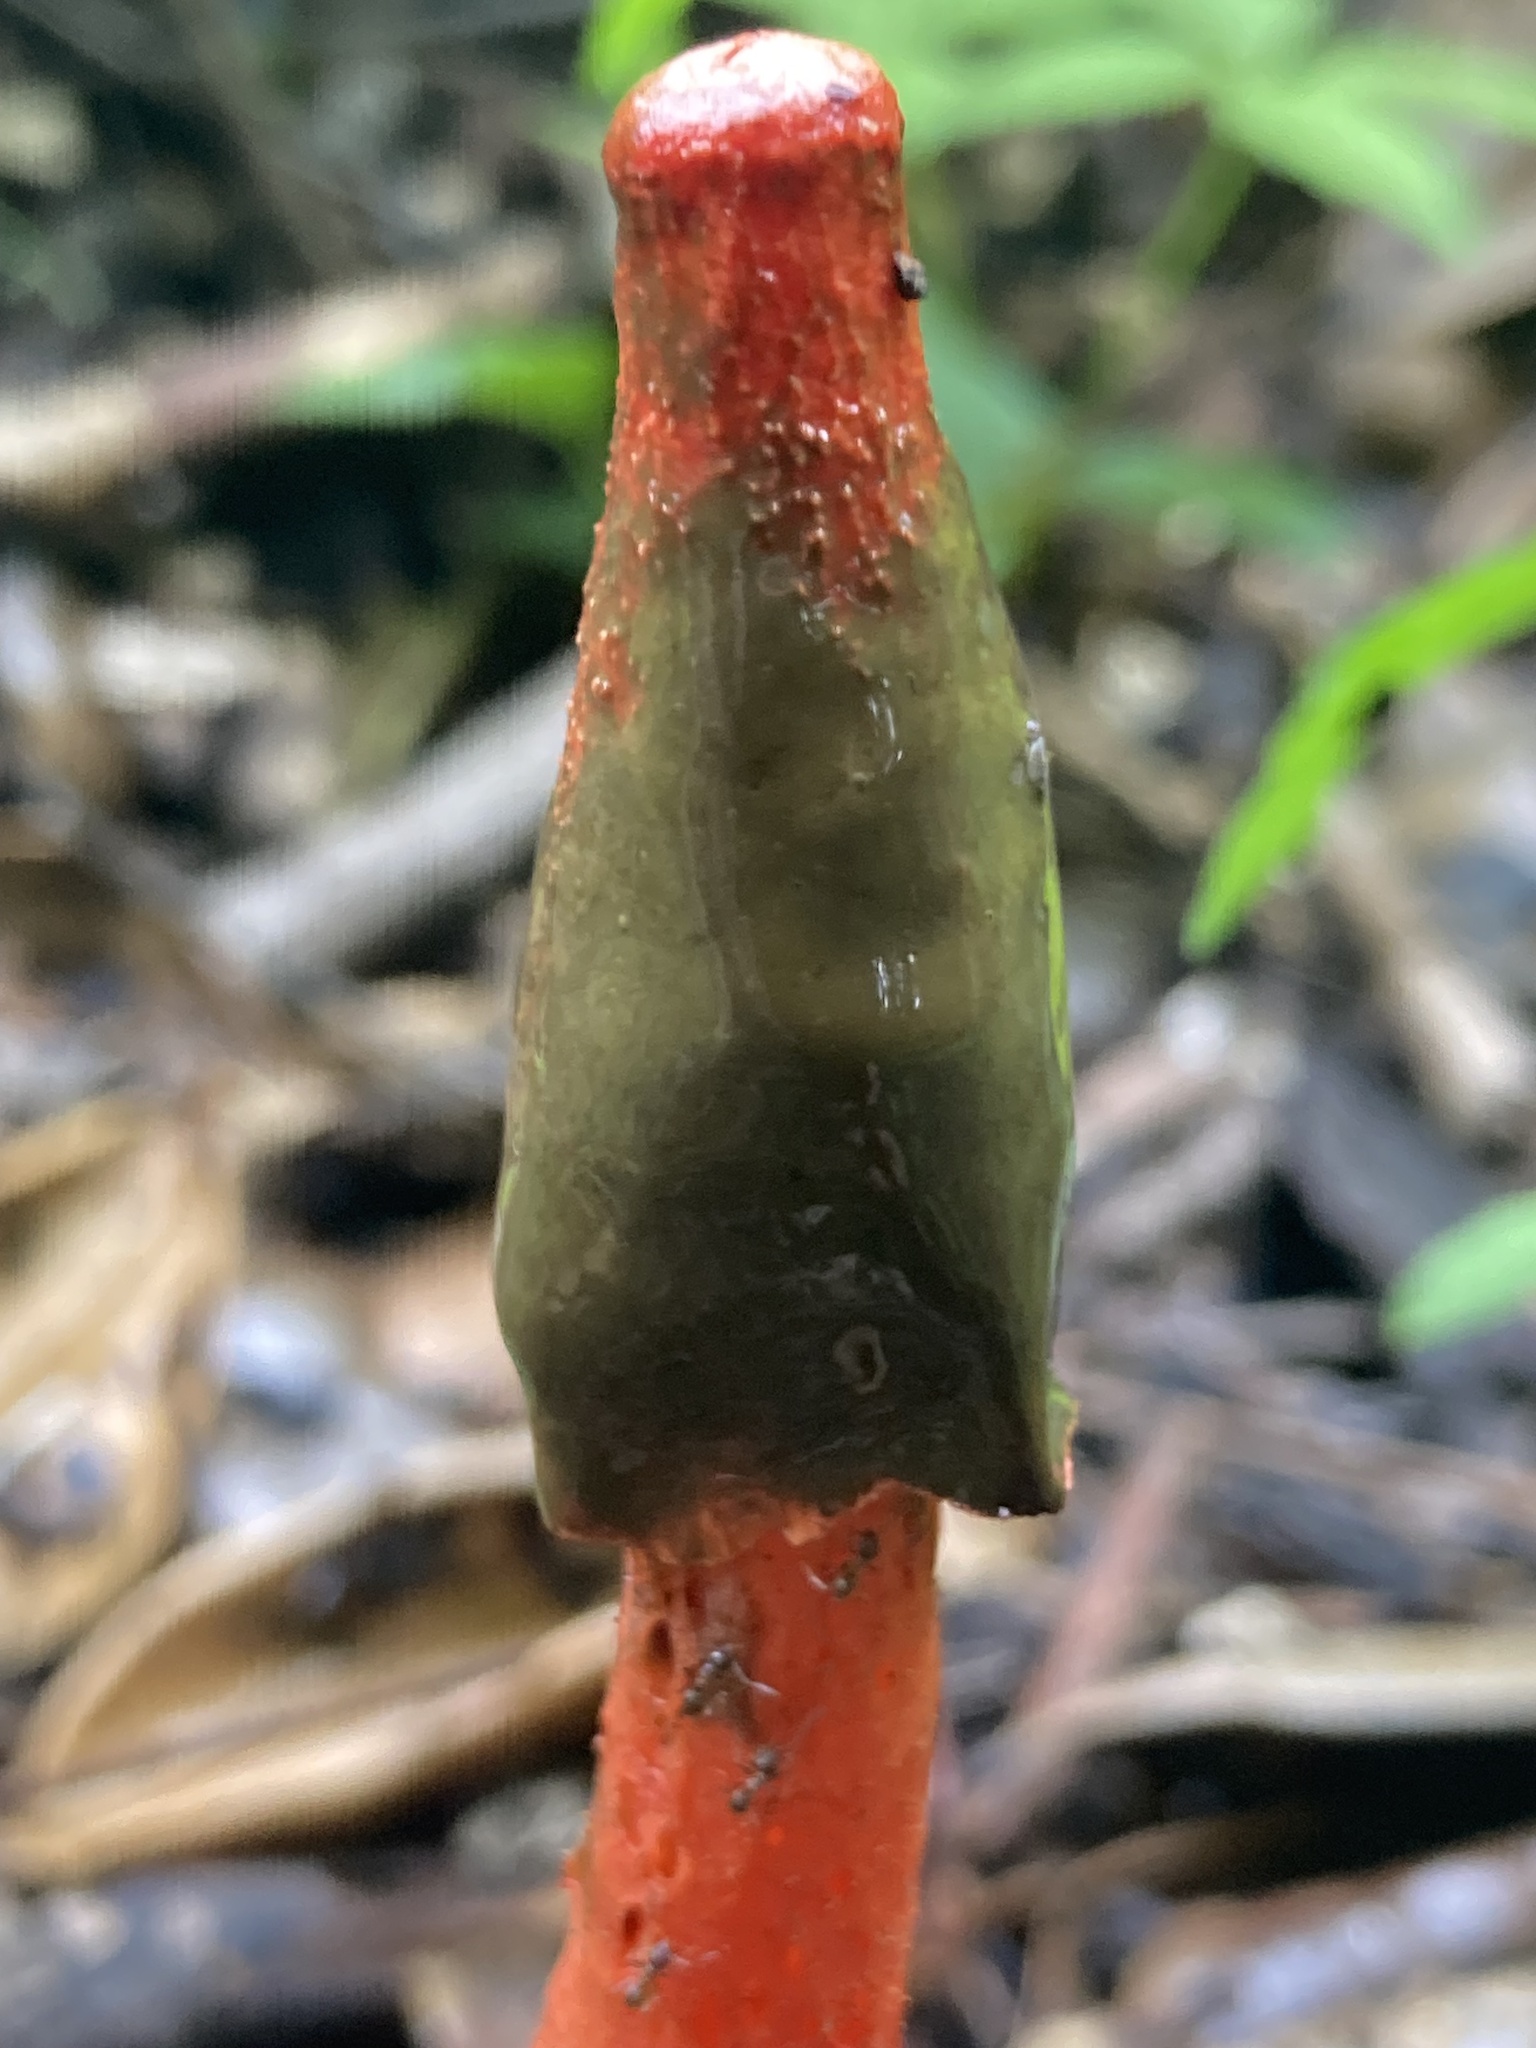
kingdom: Fungi
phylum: Basidiomycota
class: Agaricomycetes
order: Phallales
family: Phallaceae
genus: Phallus
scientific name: Phallus rugulosus
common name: Wrinkly stinkhorn
